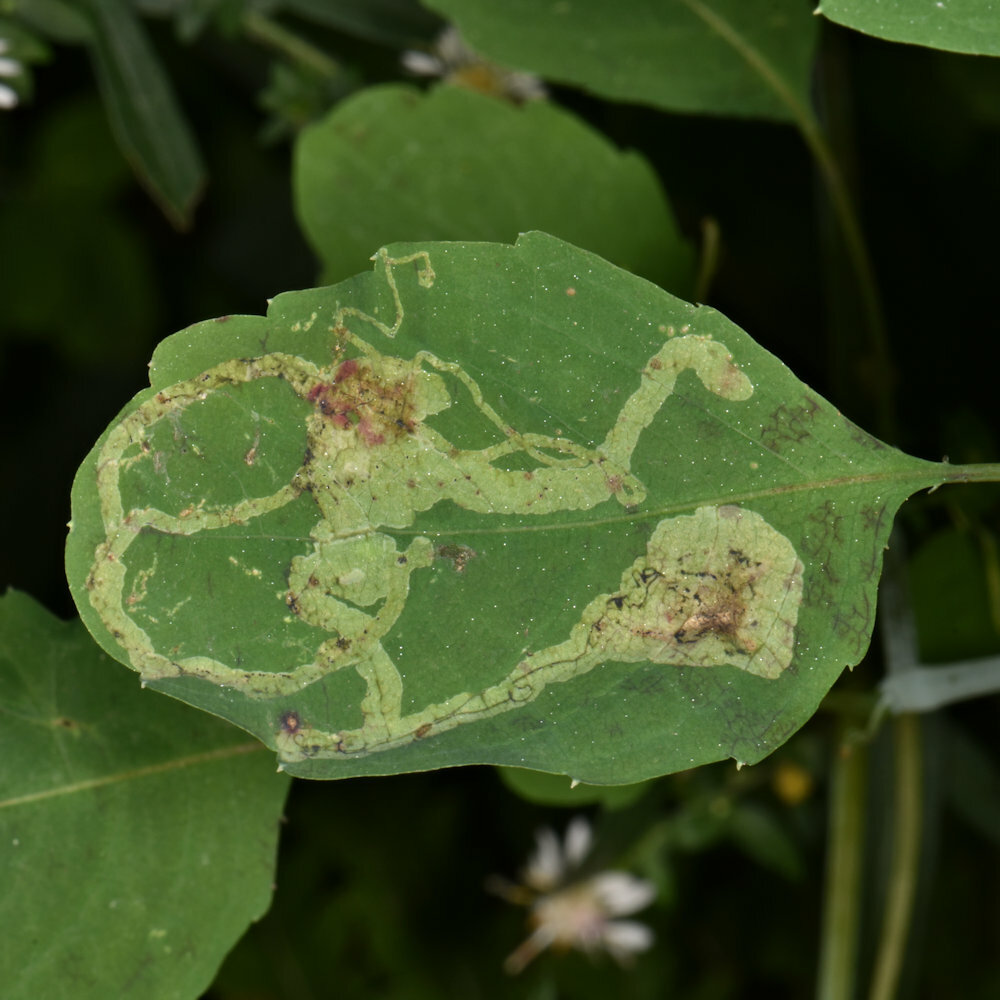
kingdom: Animalia
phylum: Arthropoda
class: Insecta
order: Diptera
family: Agromyzidae
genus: Phytoliriomyza
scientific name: Phytoliriomyza melampyga
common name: Jewelweed leaf-miner fly
